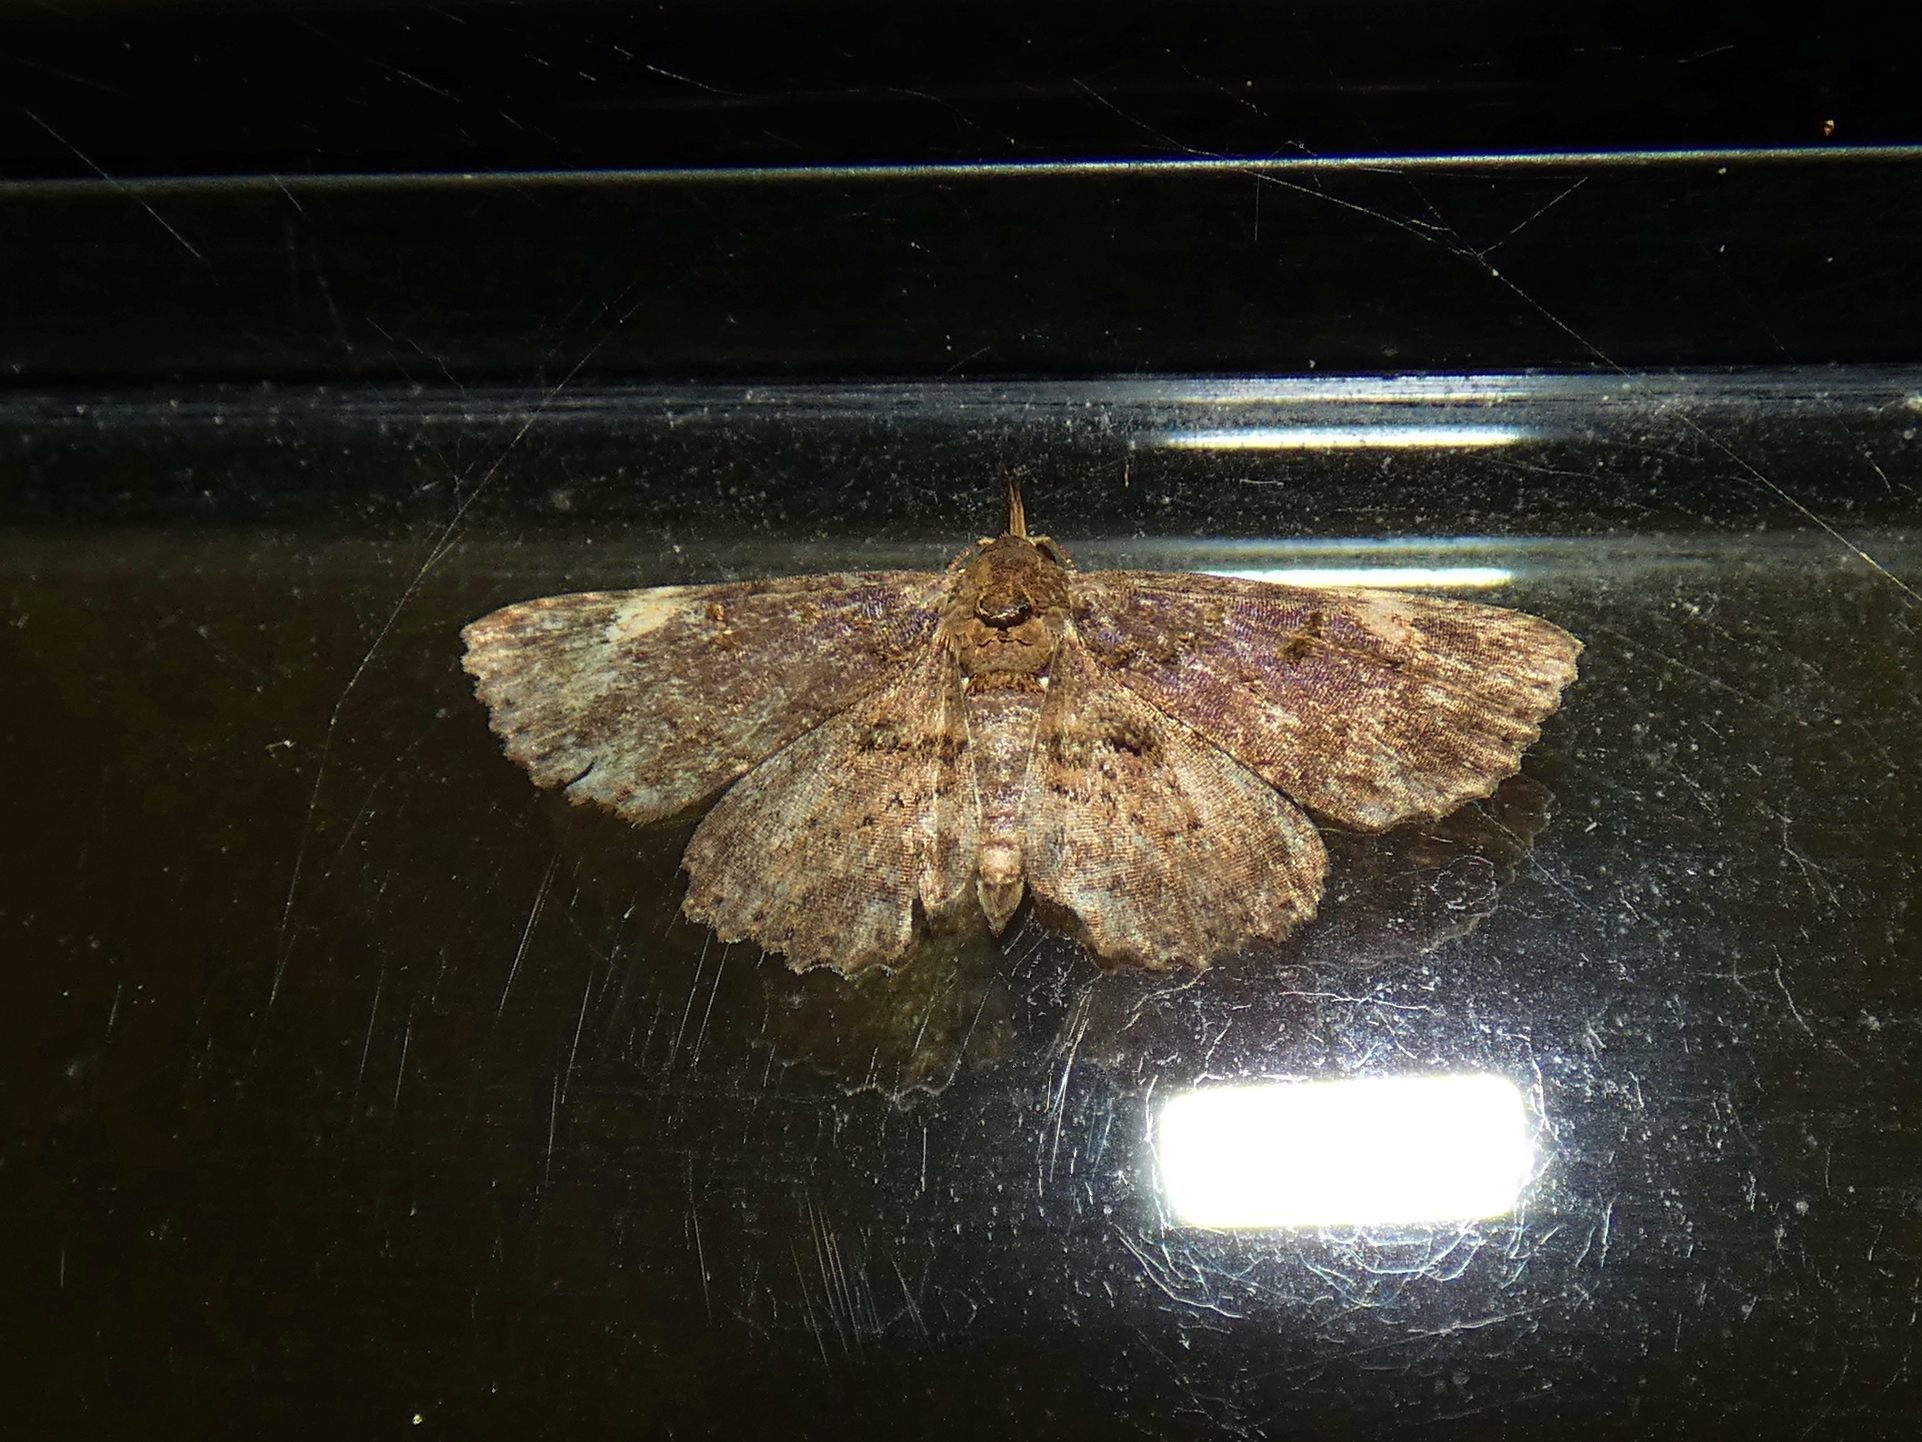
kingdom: Animalia
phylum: Arthropoda
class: Insecta
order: Lepidoptera
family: Erebidae
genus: Artigisa
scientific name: Artigisa impropria
